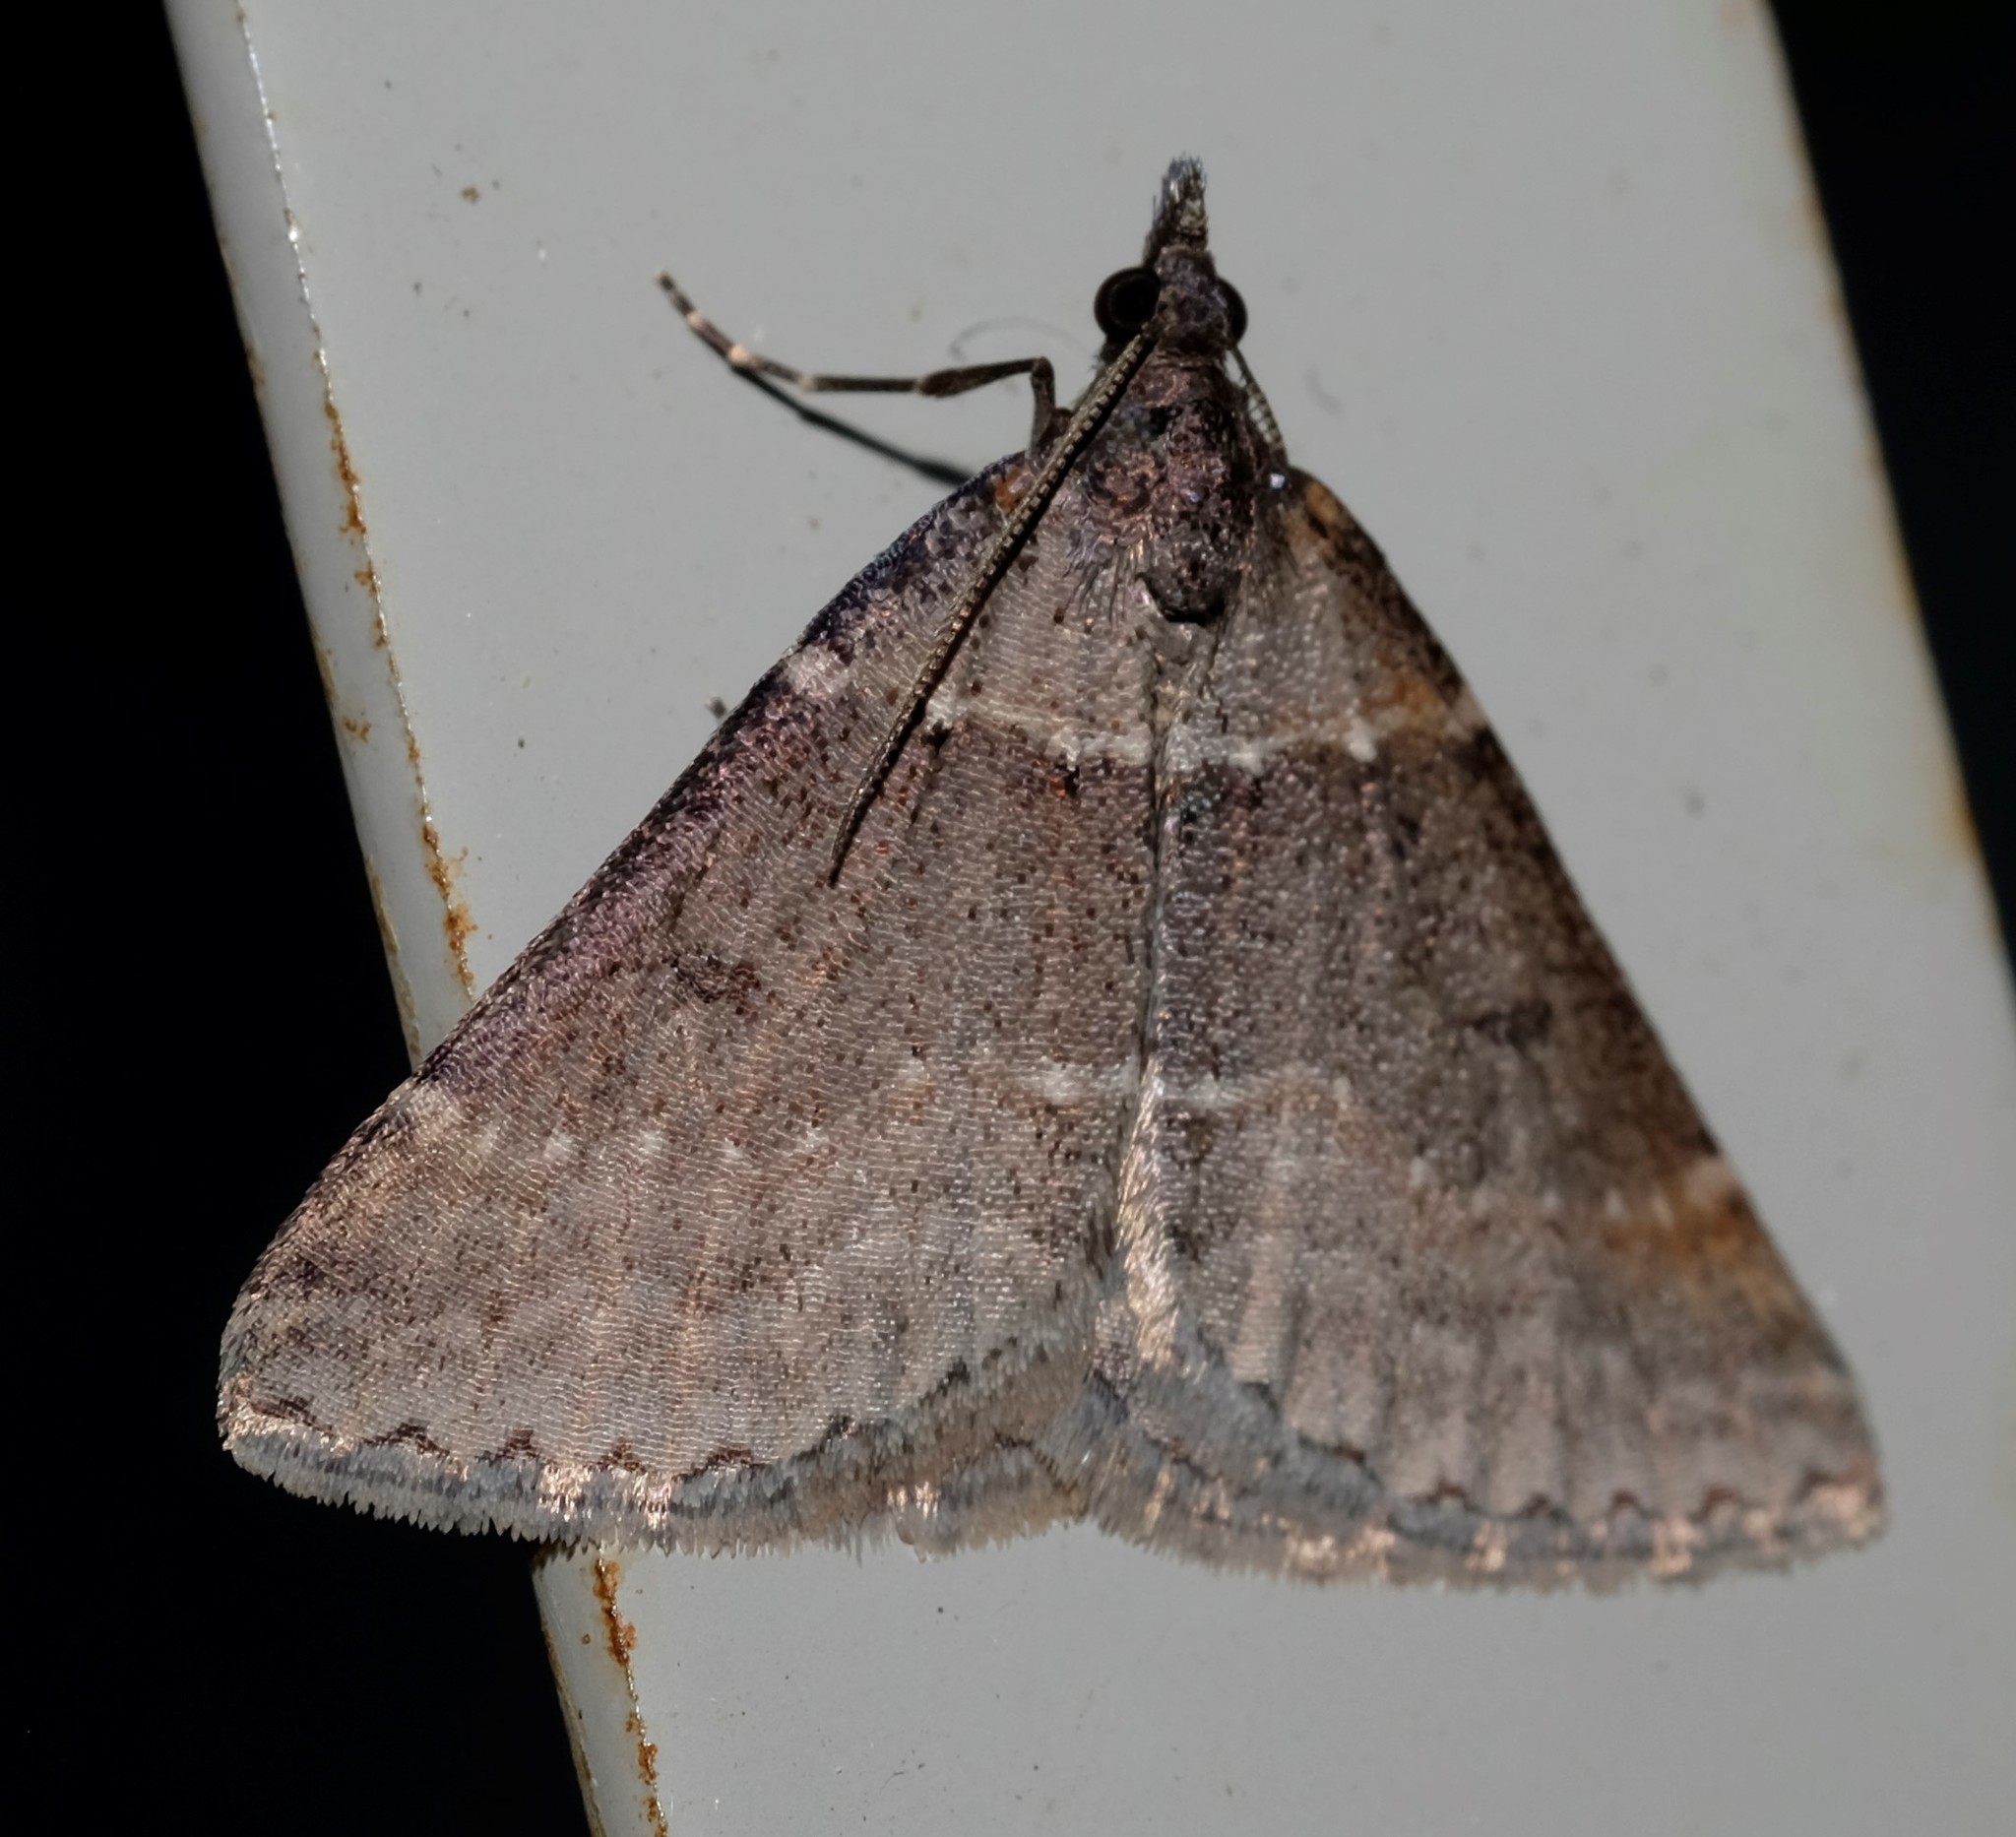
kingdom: Animalia
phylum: Arthropoda
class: Insecta
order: Lepidoptera
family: Geometridae
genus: Dichromodes
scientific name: Dichromodes atrosignata
